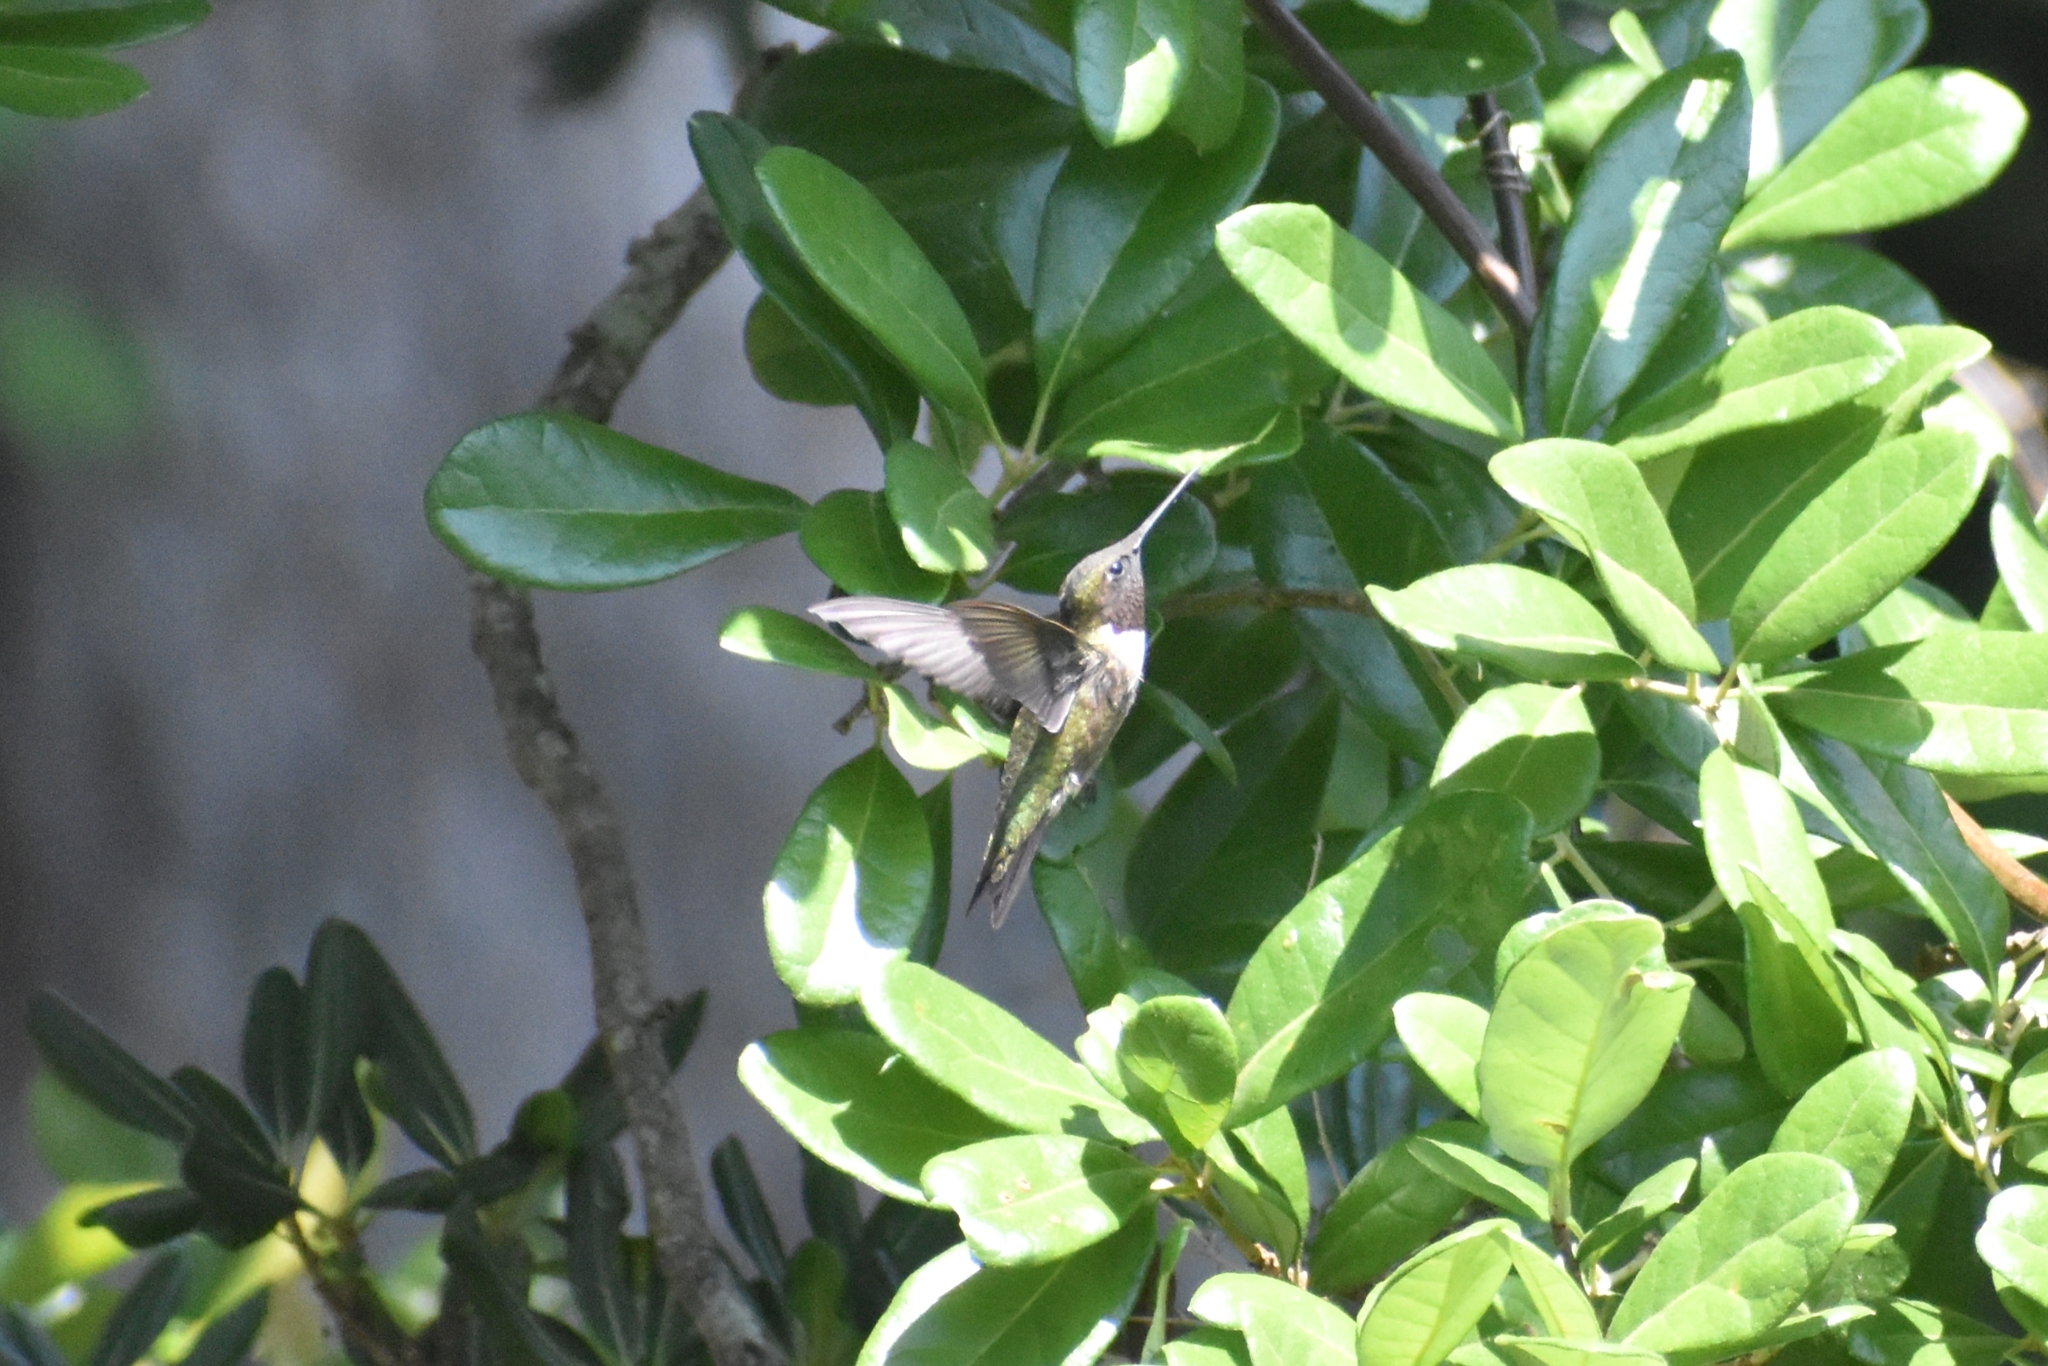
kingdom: Animalia
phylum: Chordata
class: Aves
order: Apodiformes
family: Trochilidae
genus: Archilochus
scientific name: Archilochus colubris
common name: Ruby-throated hummingbird
